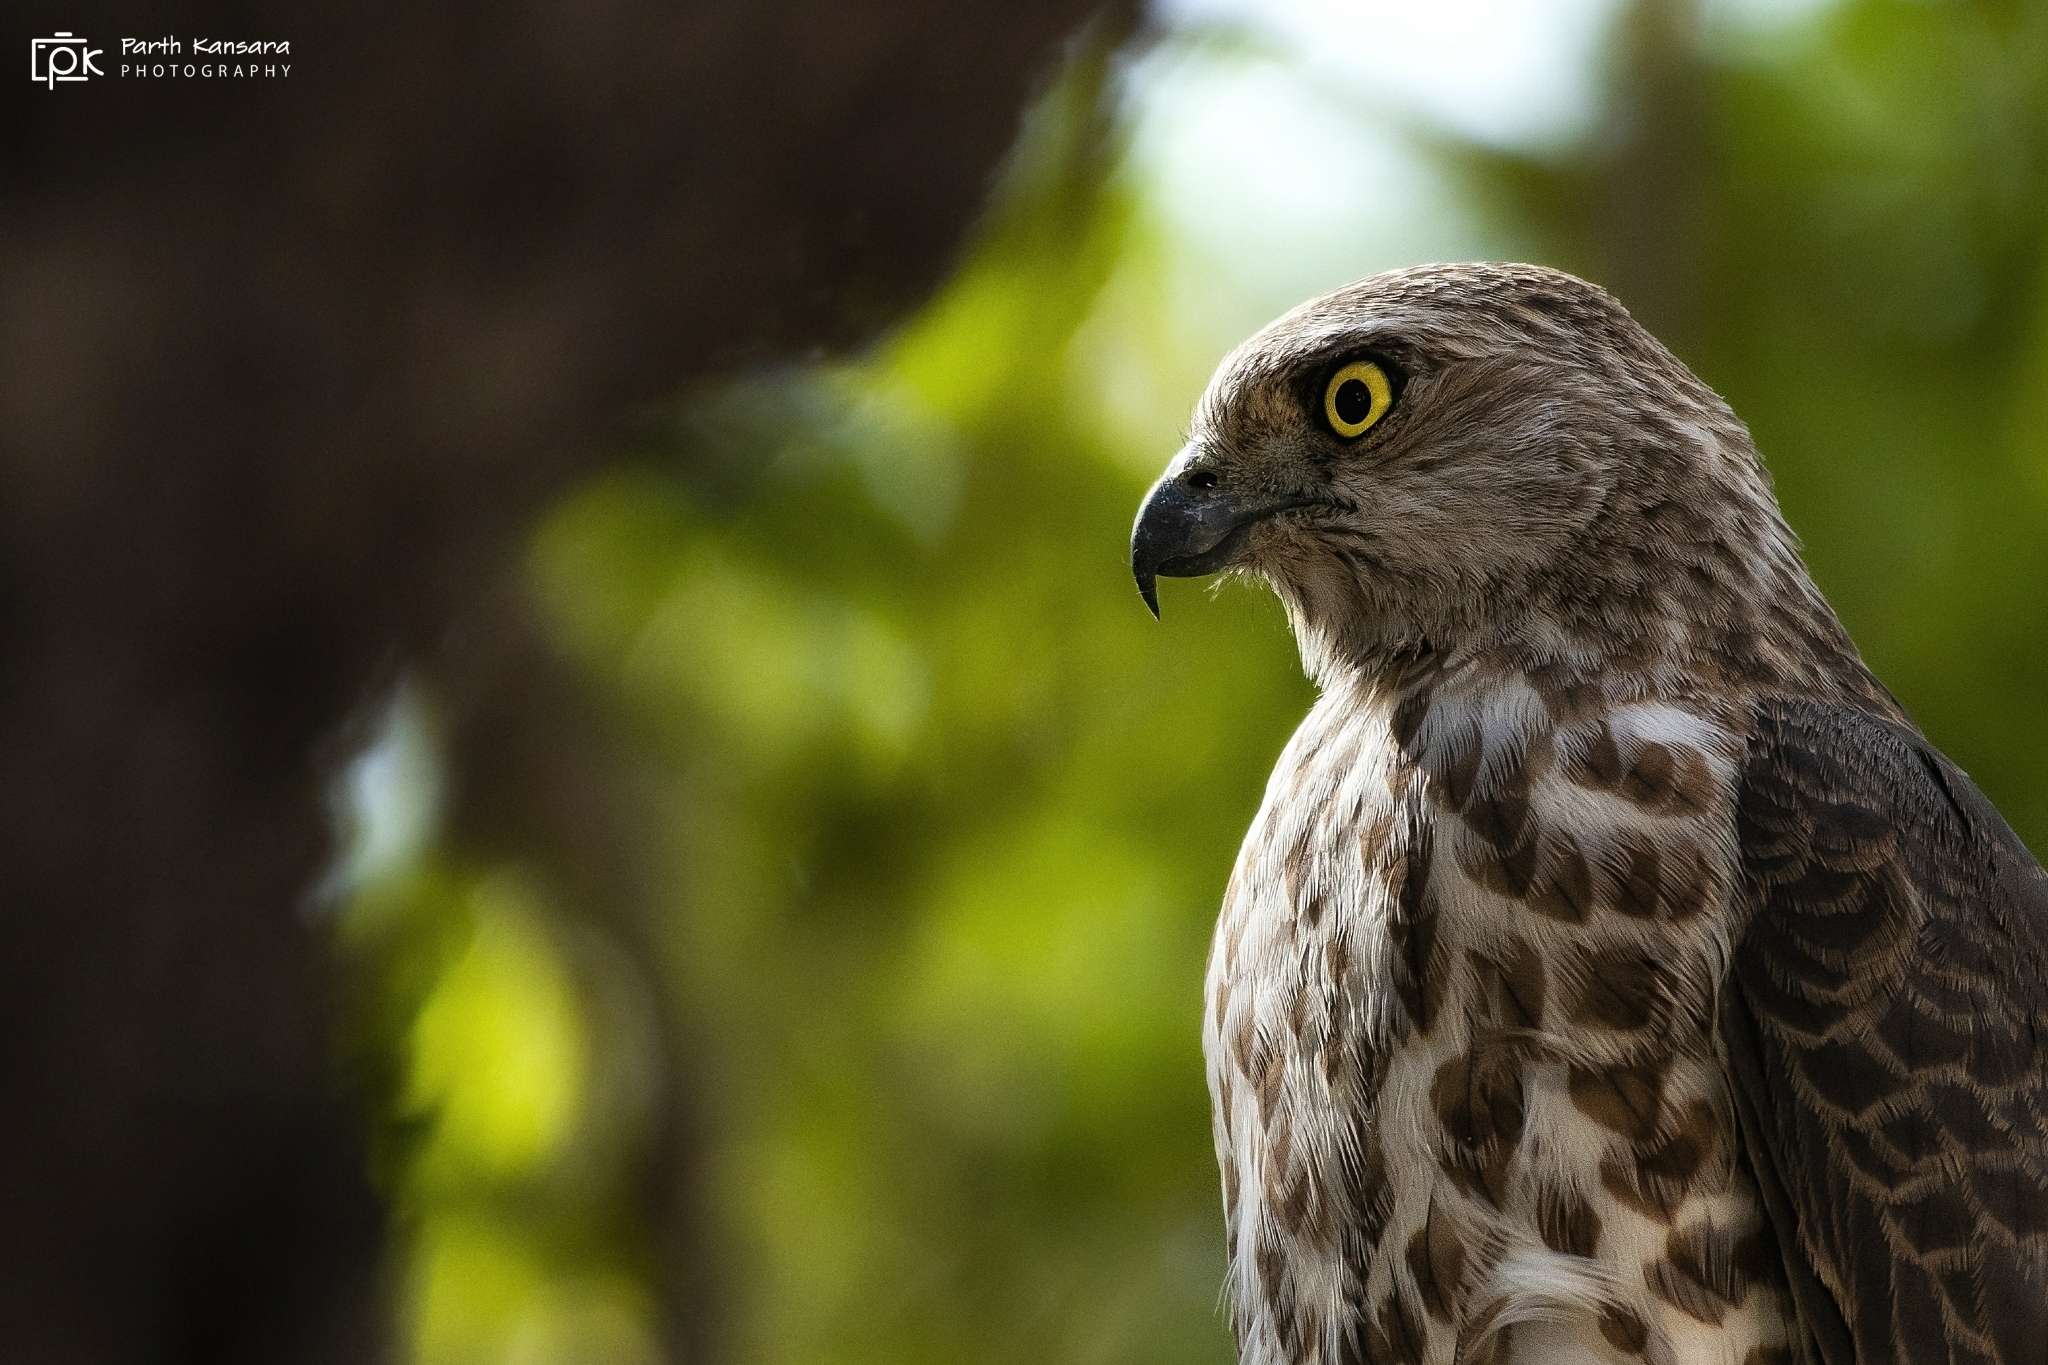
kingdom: Animalia
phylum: Chordata
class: Aves
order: Accipitriformes
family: Accipitridae
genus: Accipiter
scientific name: Accipiter badius
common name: Shikra
